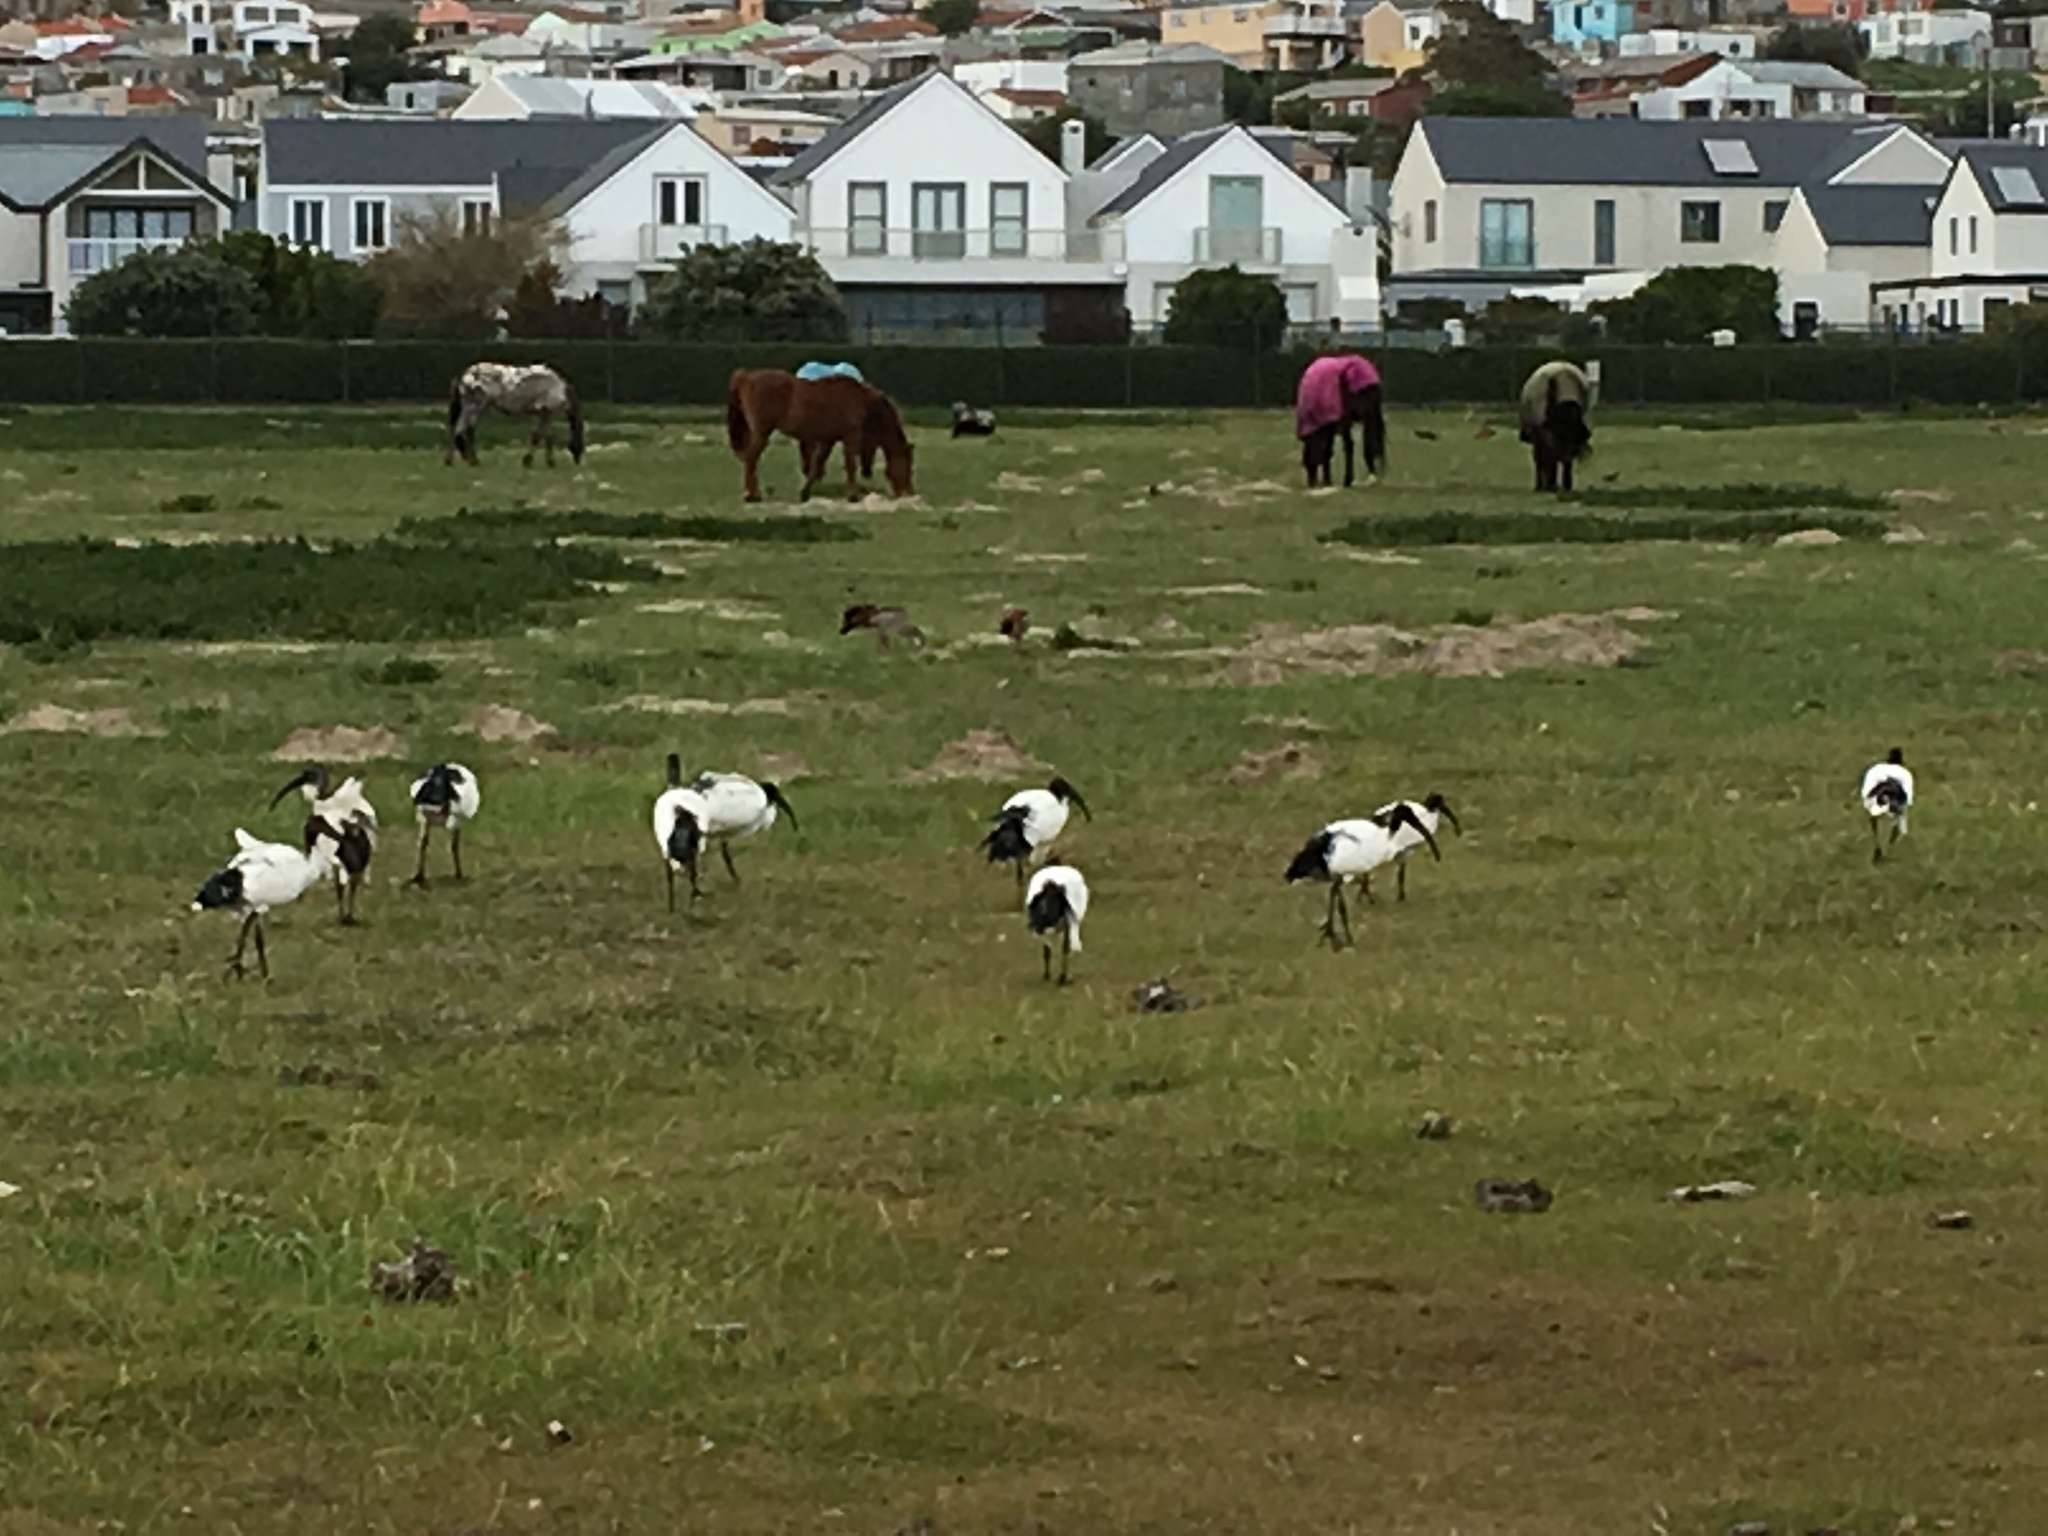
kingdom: Animalia
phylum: Chordata
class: Aves
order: Pelecaniformes
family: Threskiornithidae
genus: Threskiornis
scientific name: Threskiornis aethiopicus
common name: Sacred ibis
